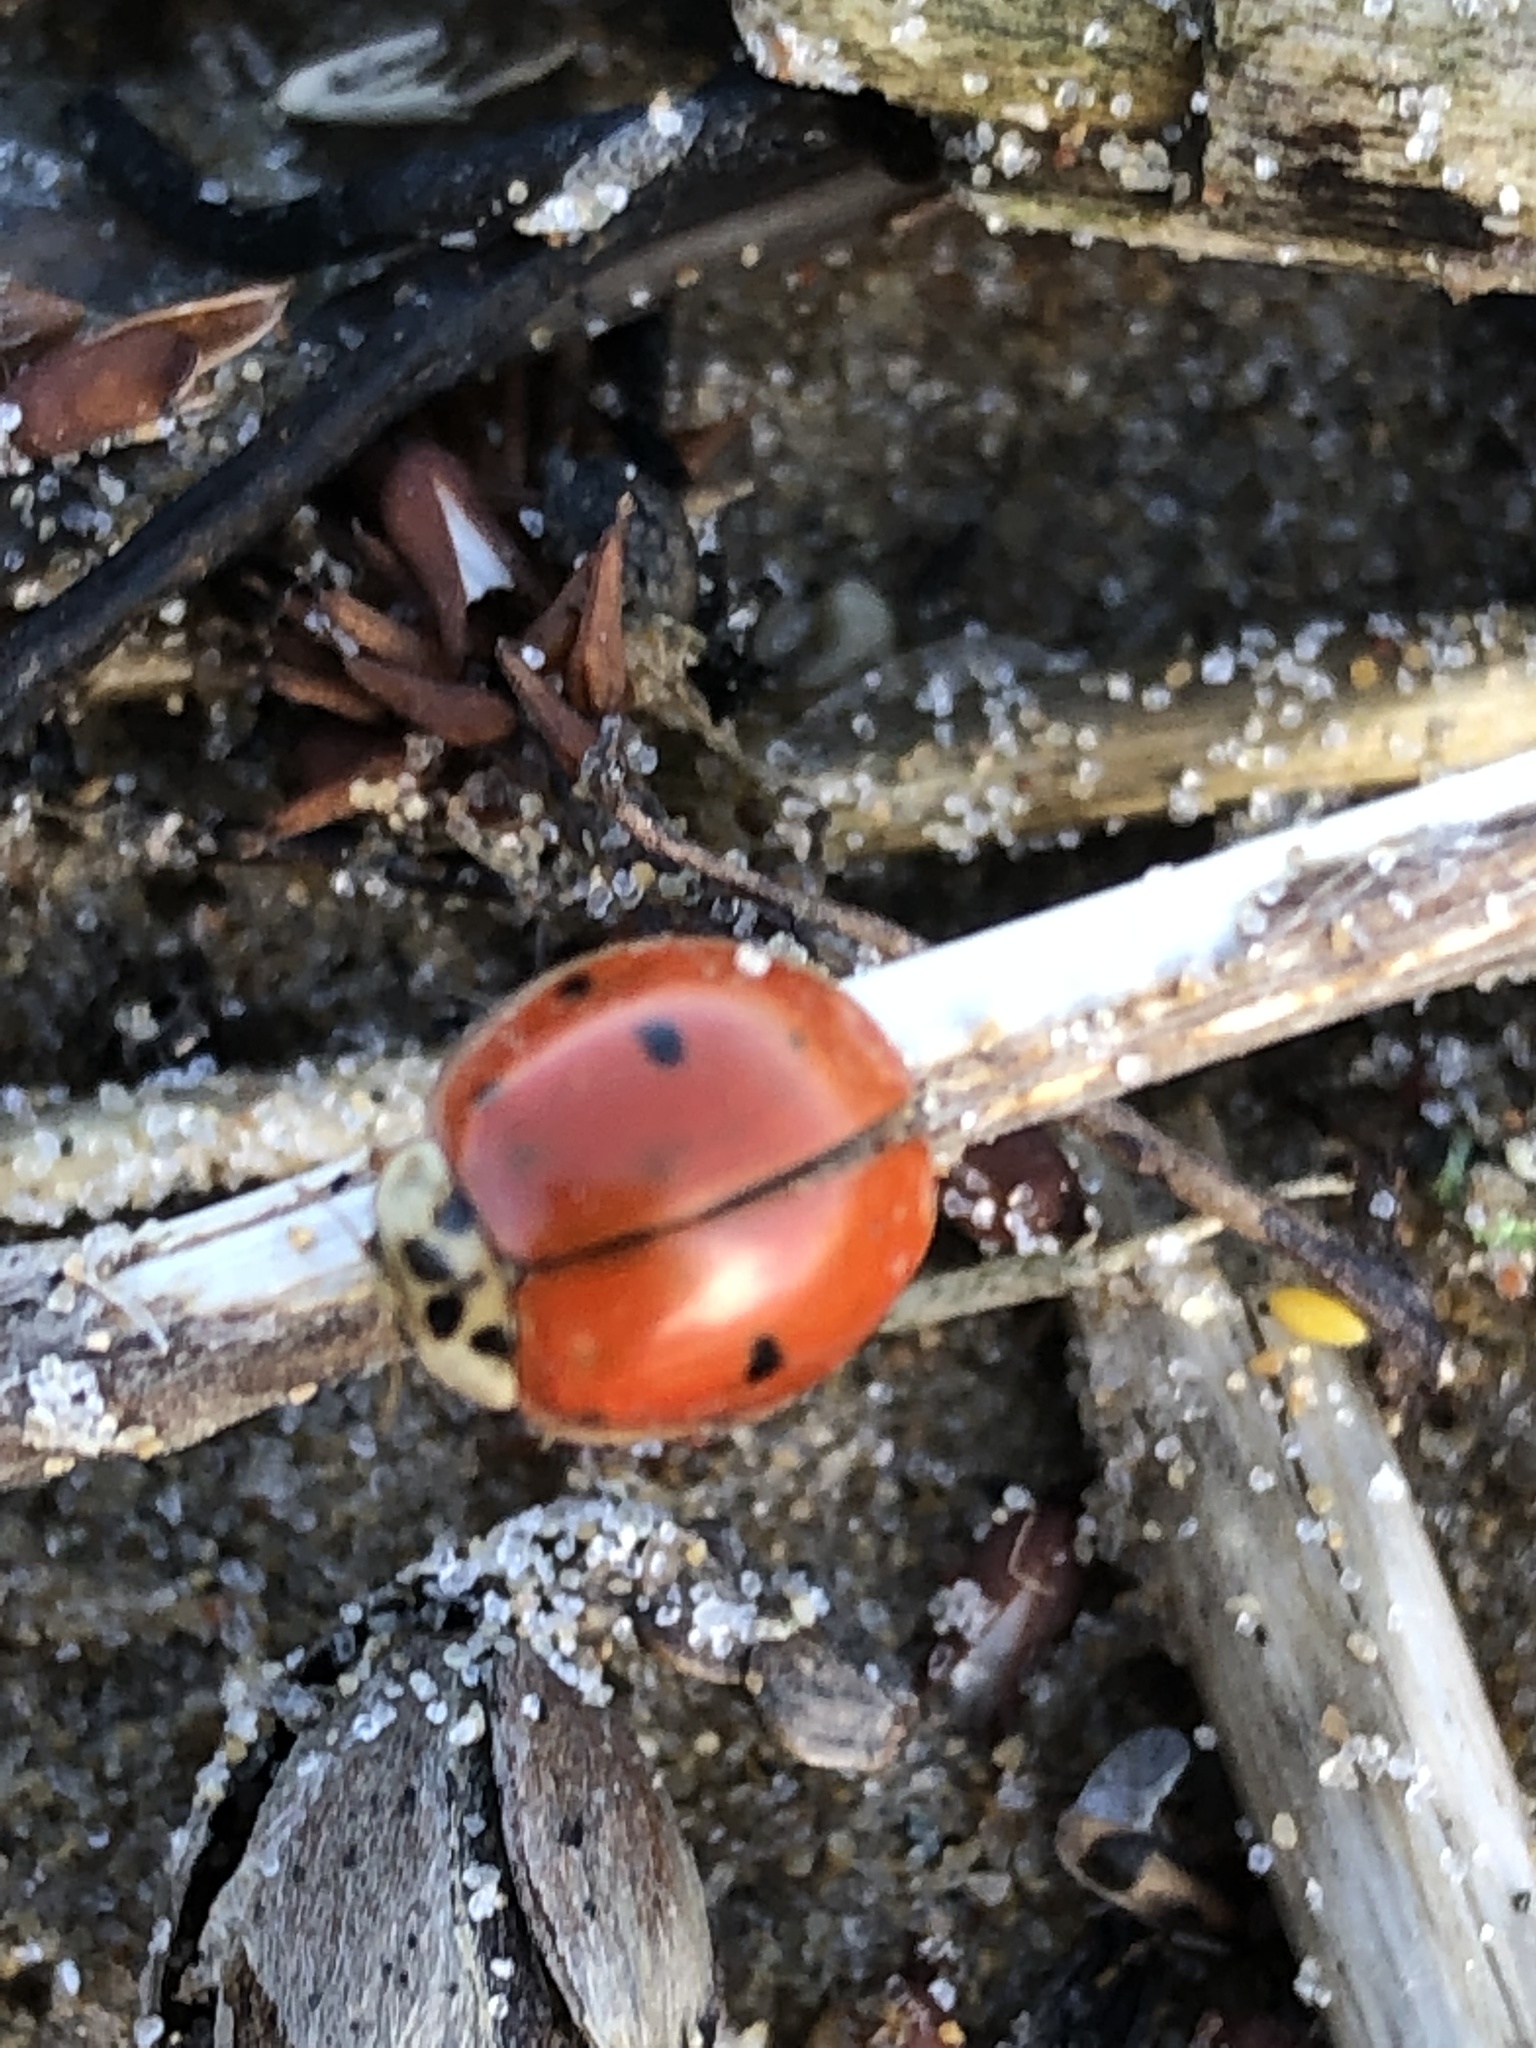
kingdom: Animalia
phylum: Arthropoda
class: Insecta
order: Coleoptera
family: Coccinellidae
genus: Harmonia
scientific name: Harmonia axyridis
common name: Harlequin ladybird
